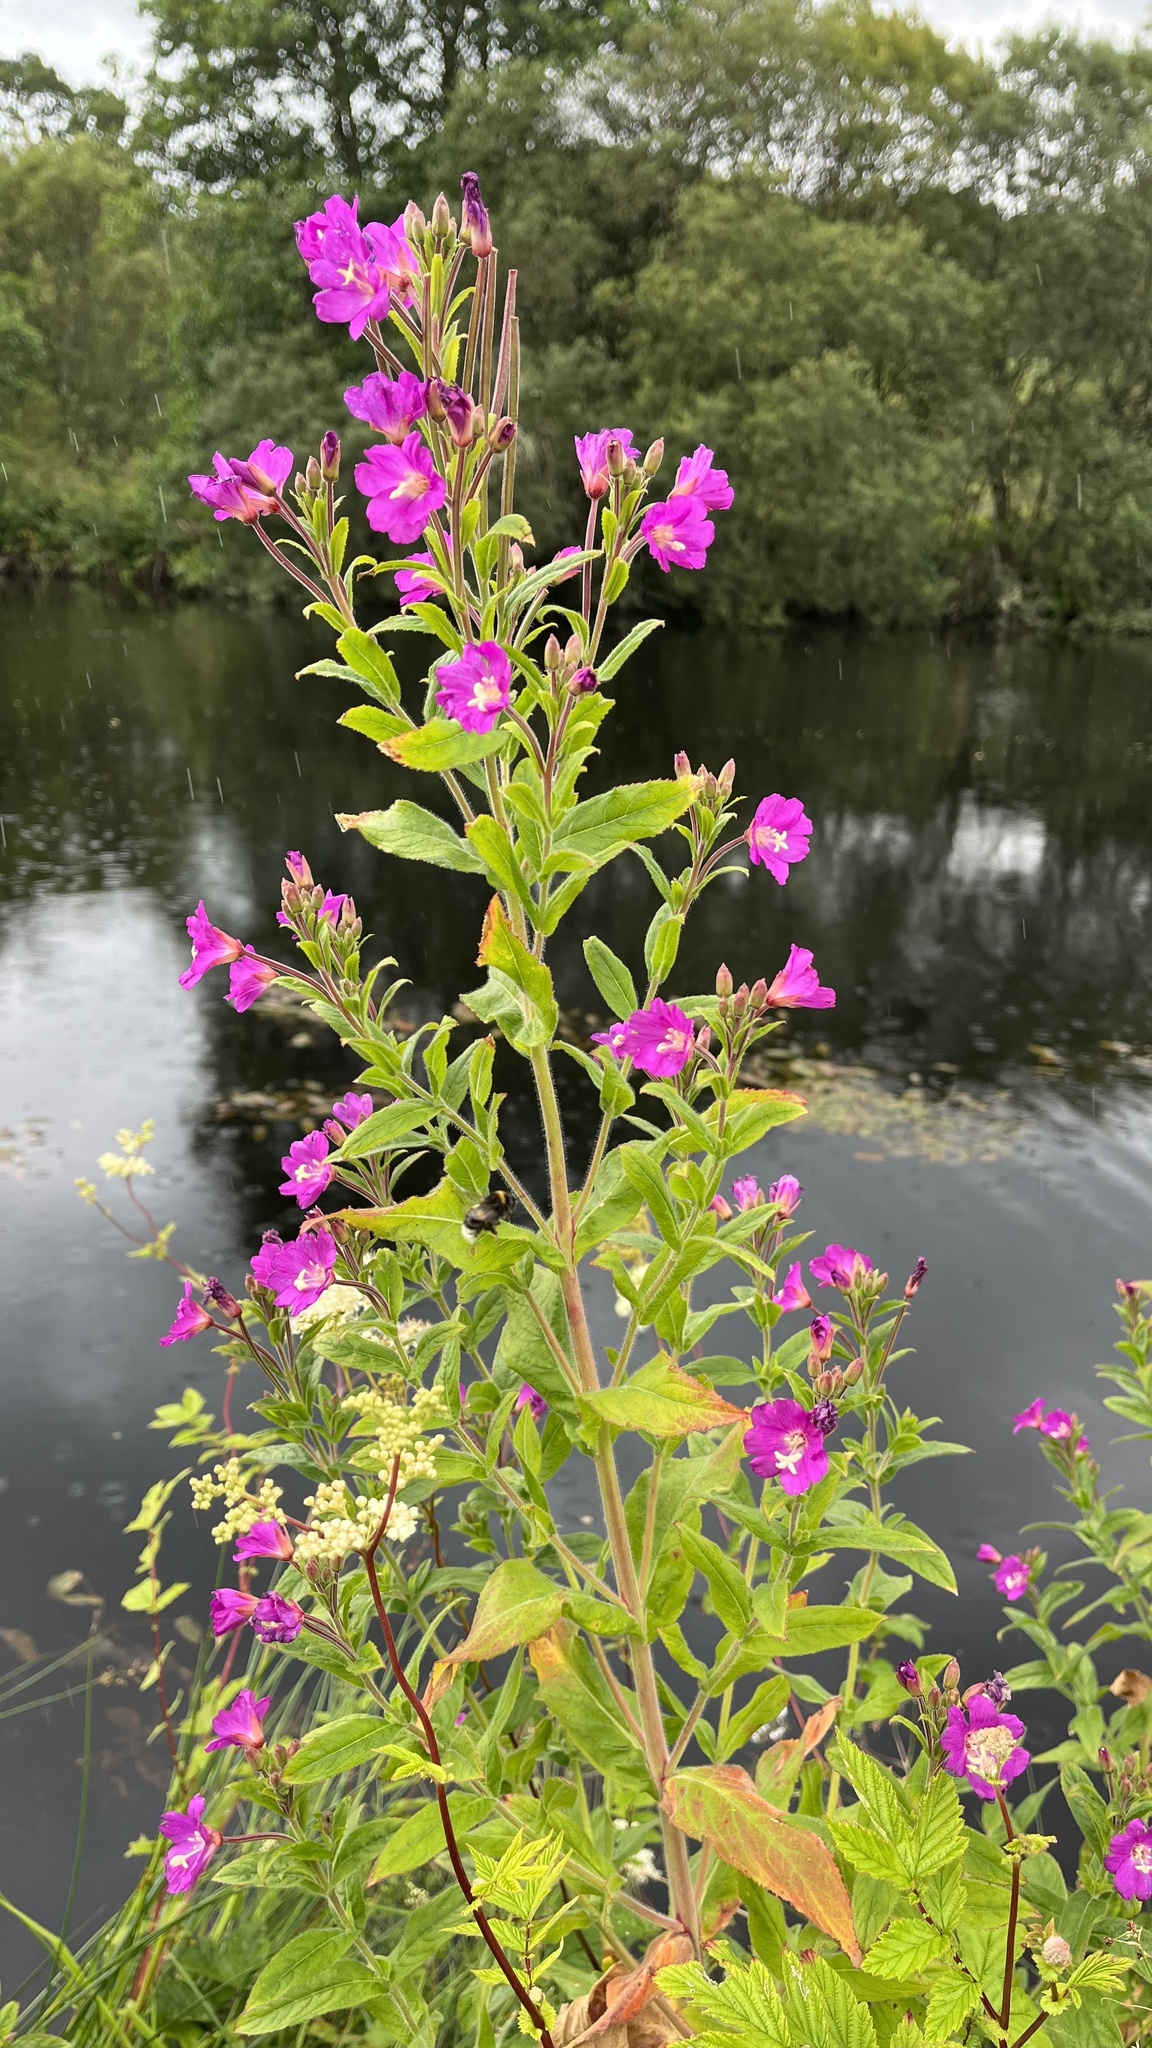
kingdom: Plantae
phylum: Tracheophyta
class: Magnoliopsida
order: Myrtales
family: Onagraceae
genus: Epilobium
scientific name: Epilobium hirsutum
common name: Great willowherb
